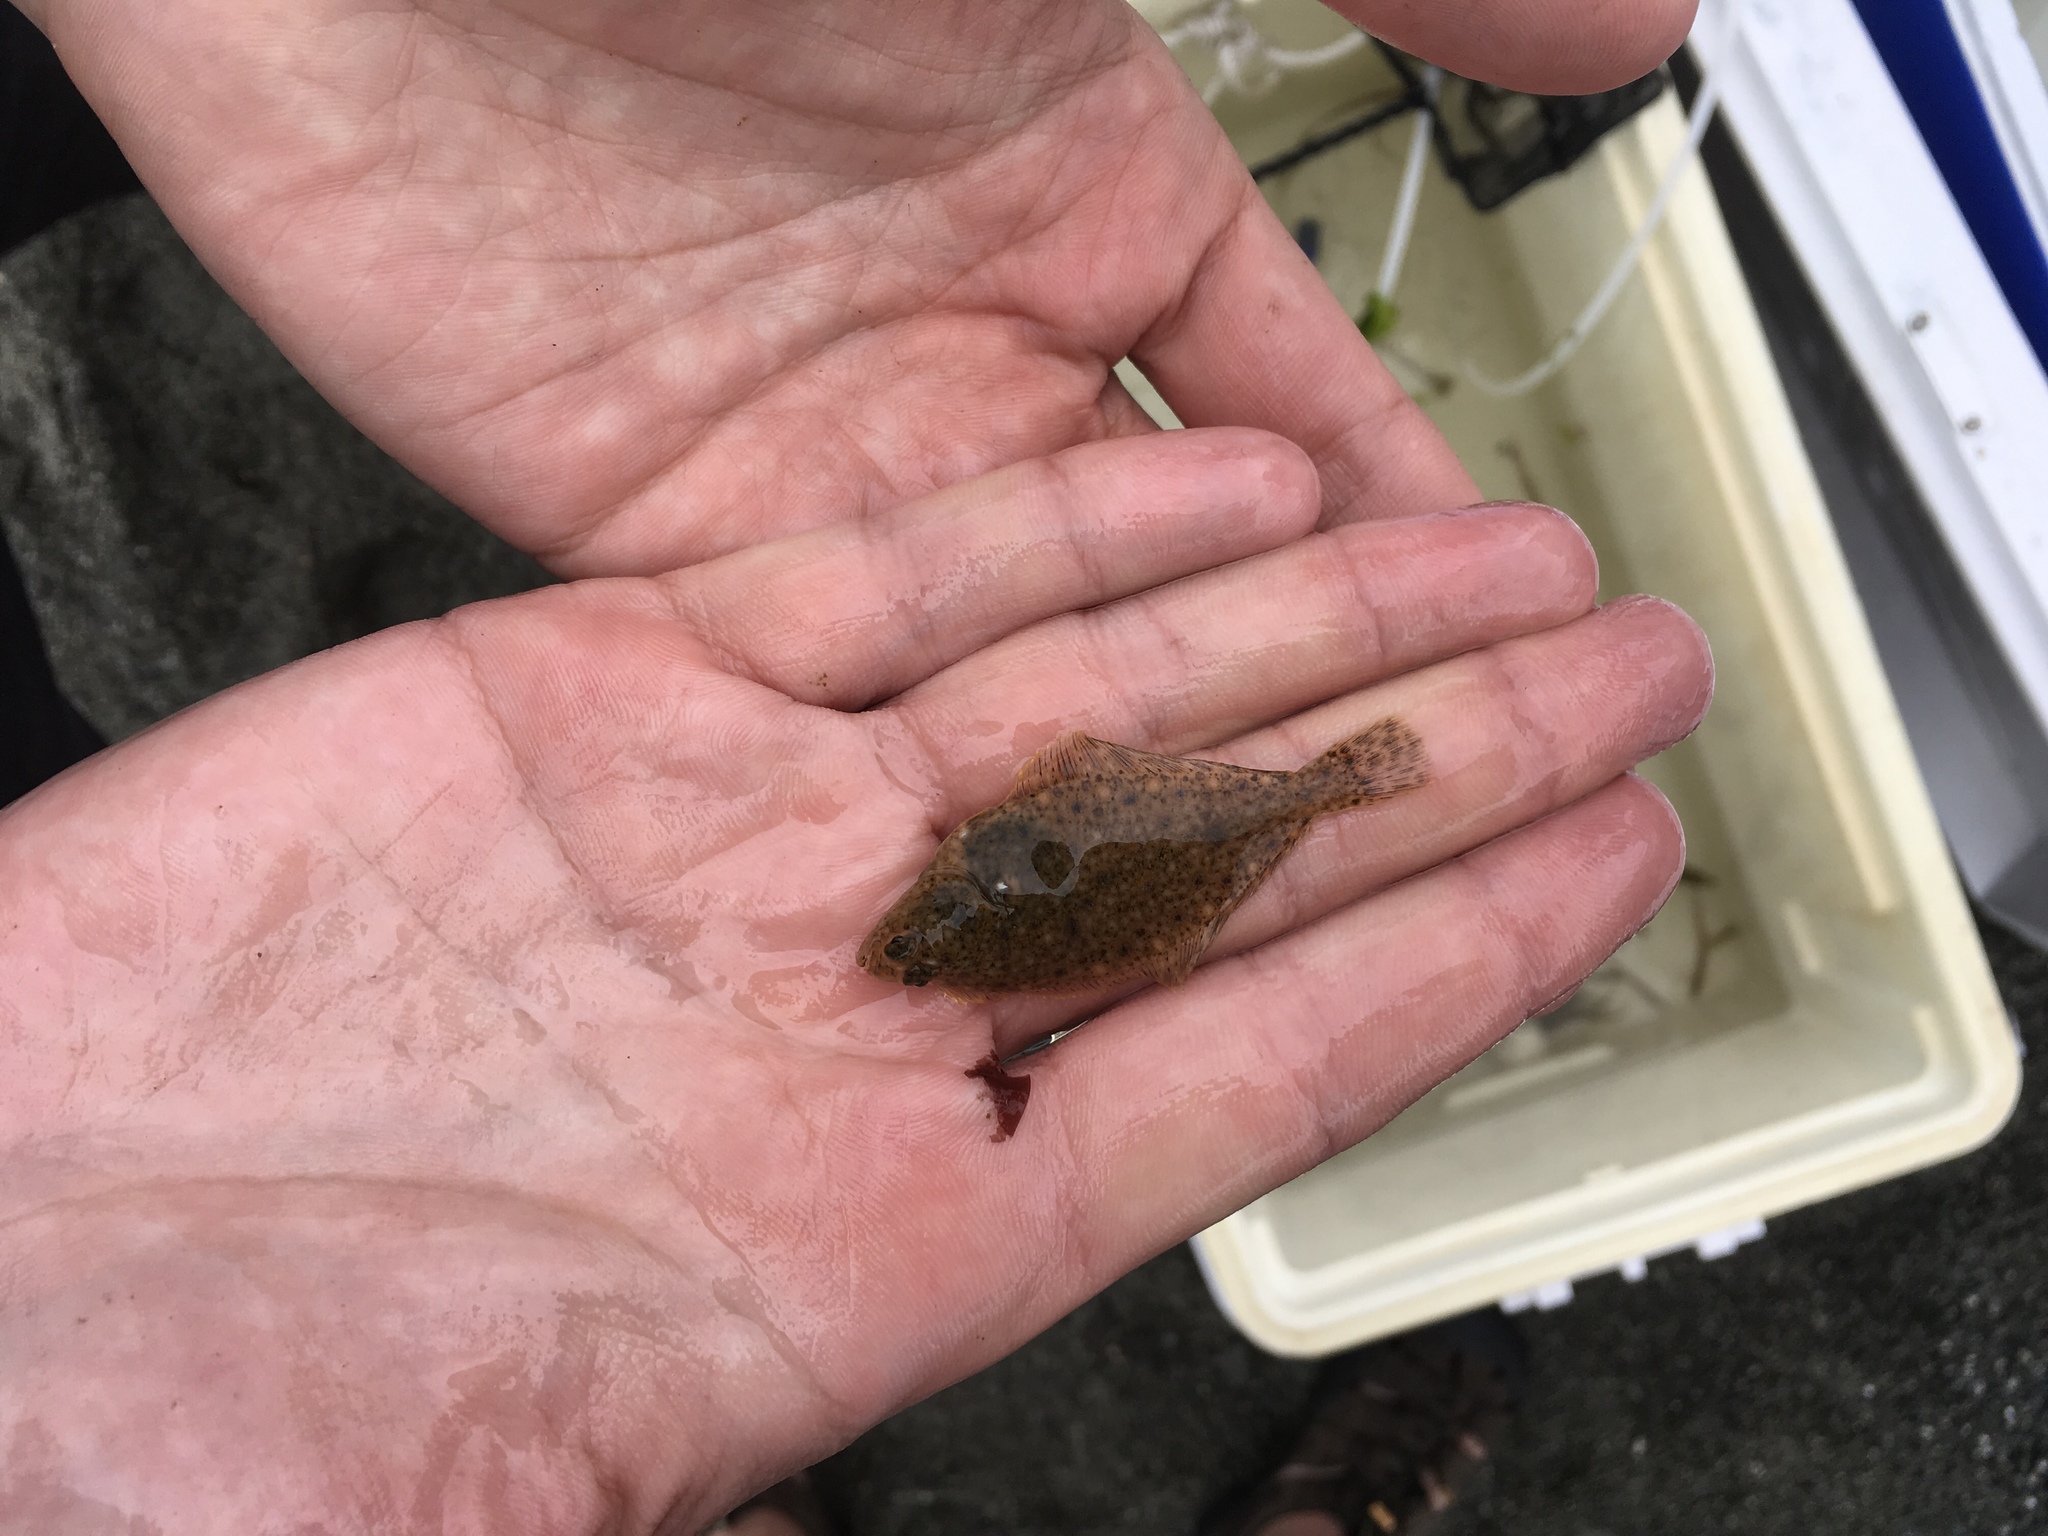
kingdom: Animalia
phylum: Chordata
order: Pleuronectiformes
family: Pleuronectidae
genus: Parophrys
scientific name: Parophrys vetulus
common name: English sole
